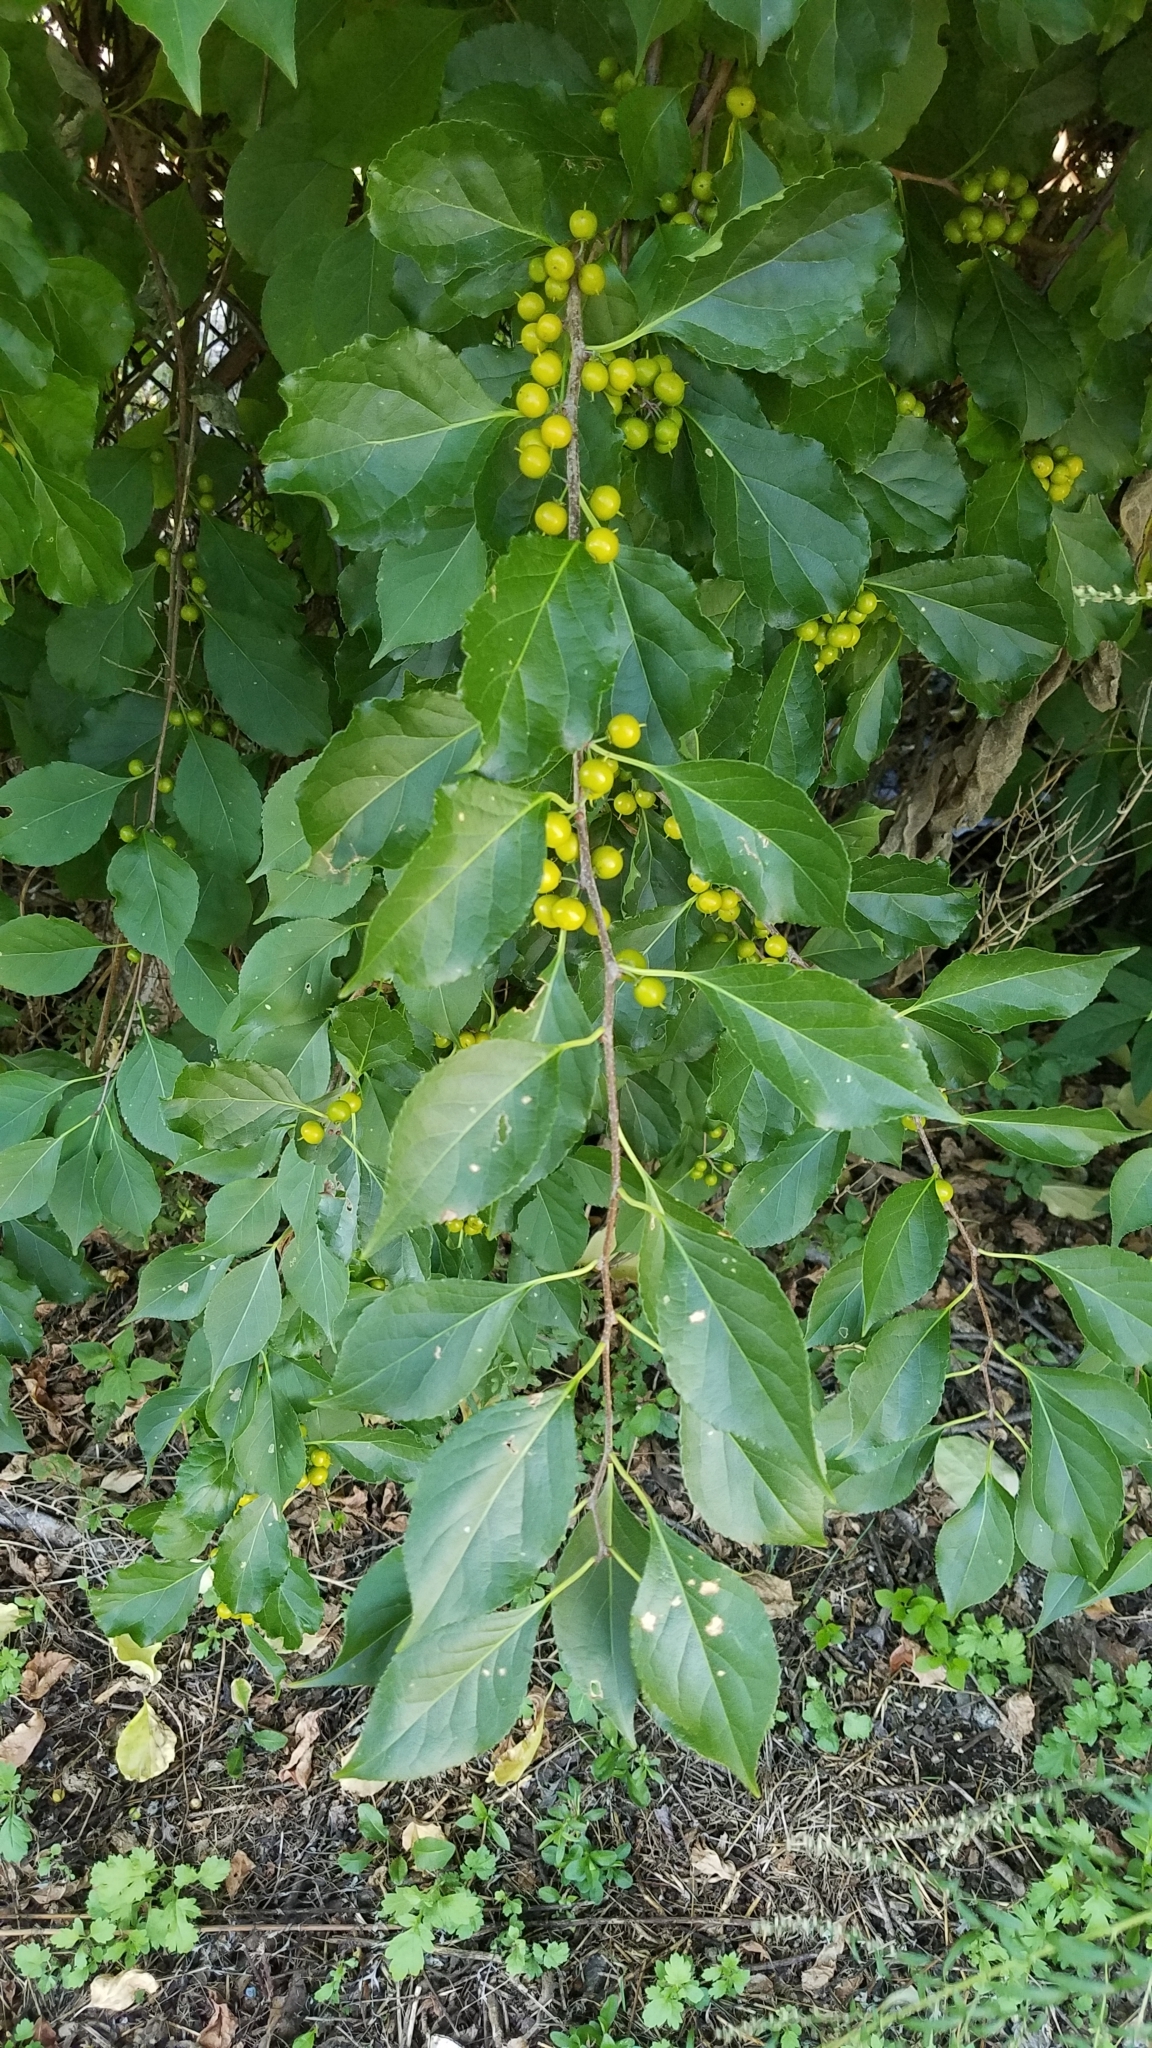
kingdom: Plantae
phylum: Tracheophyta
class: Magnoliopsida
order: Celastrales
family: Celastraceae
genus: Celastrus
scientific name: Celastrus orbiculatus
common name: Oriental bittersweet
